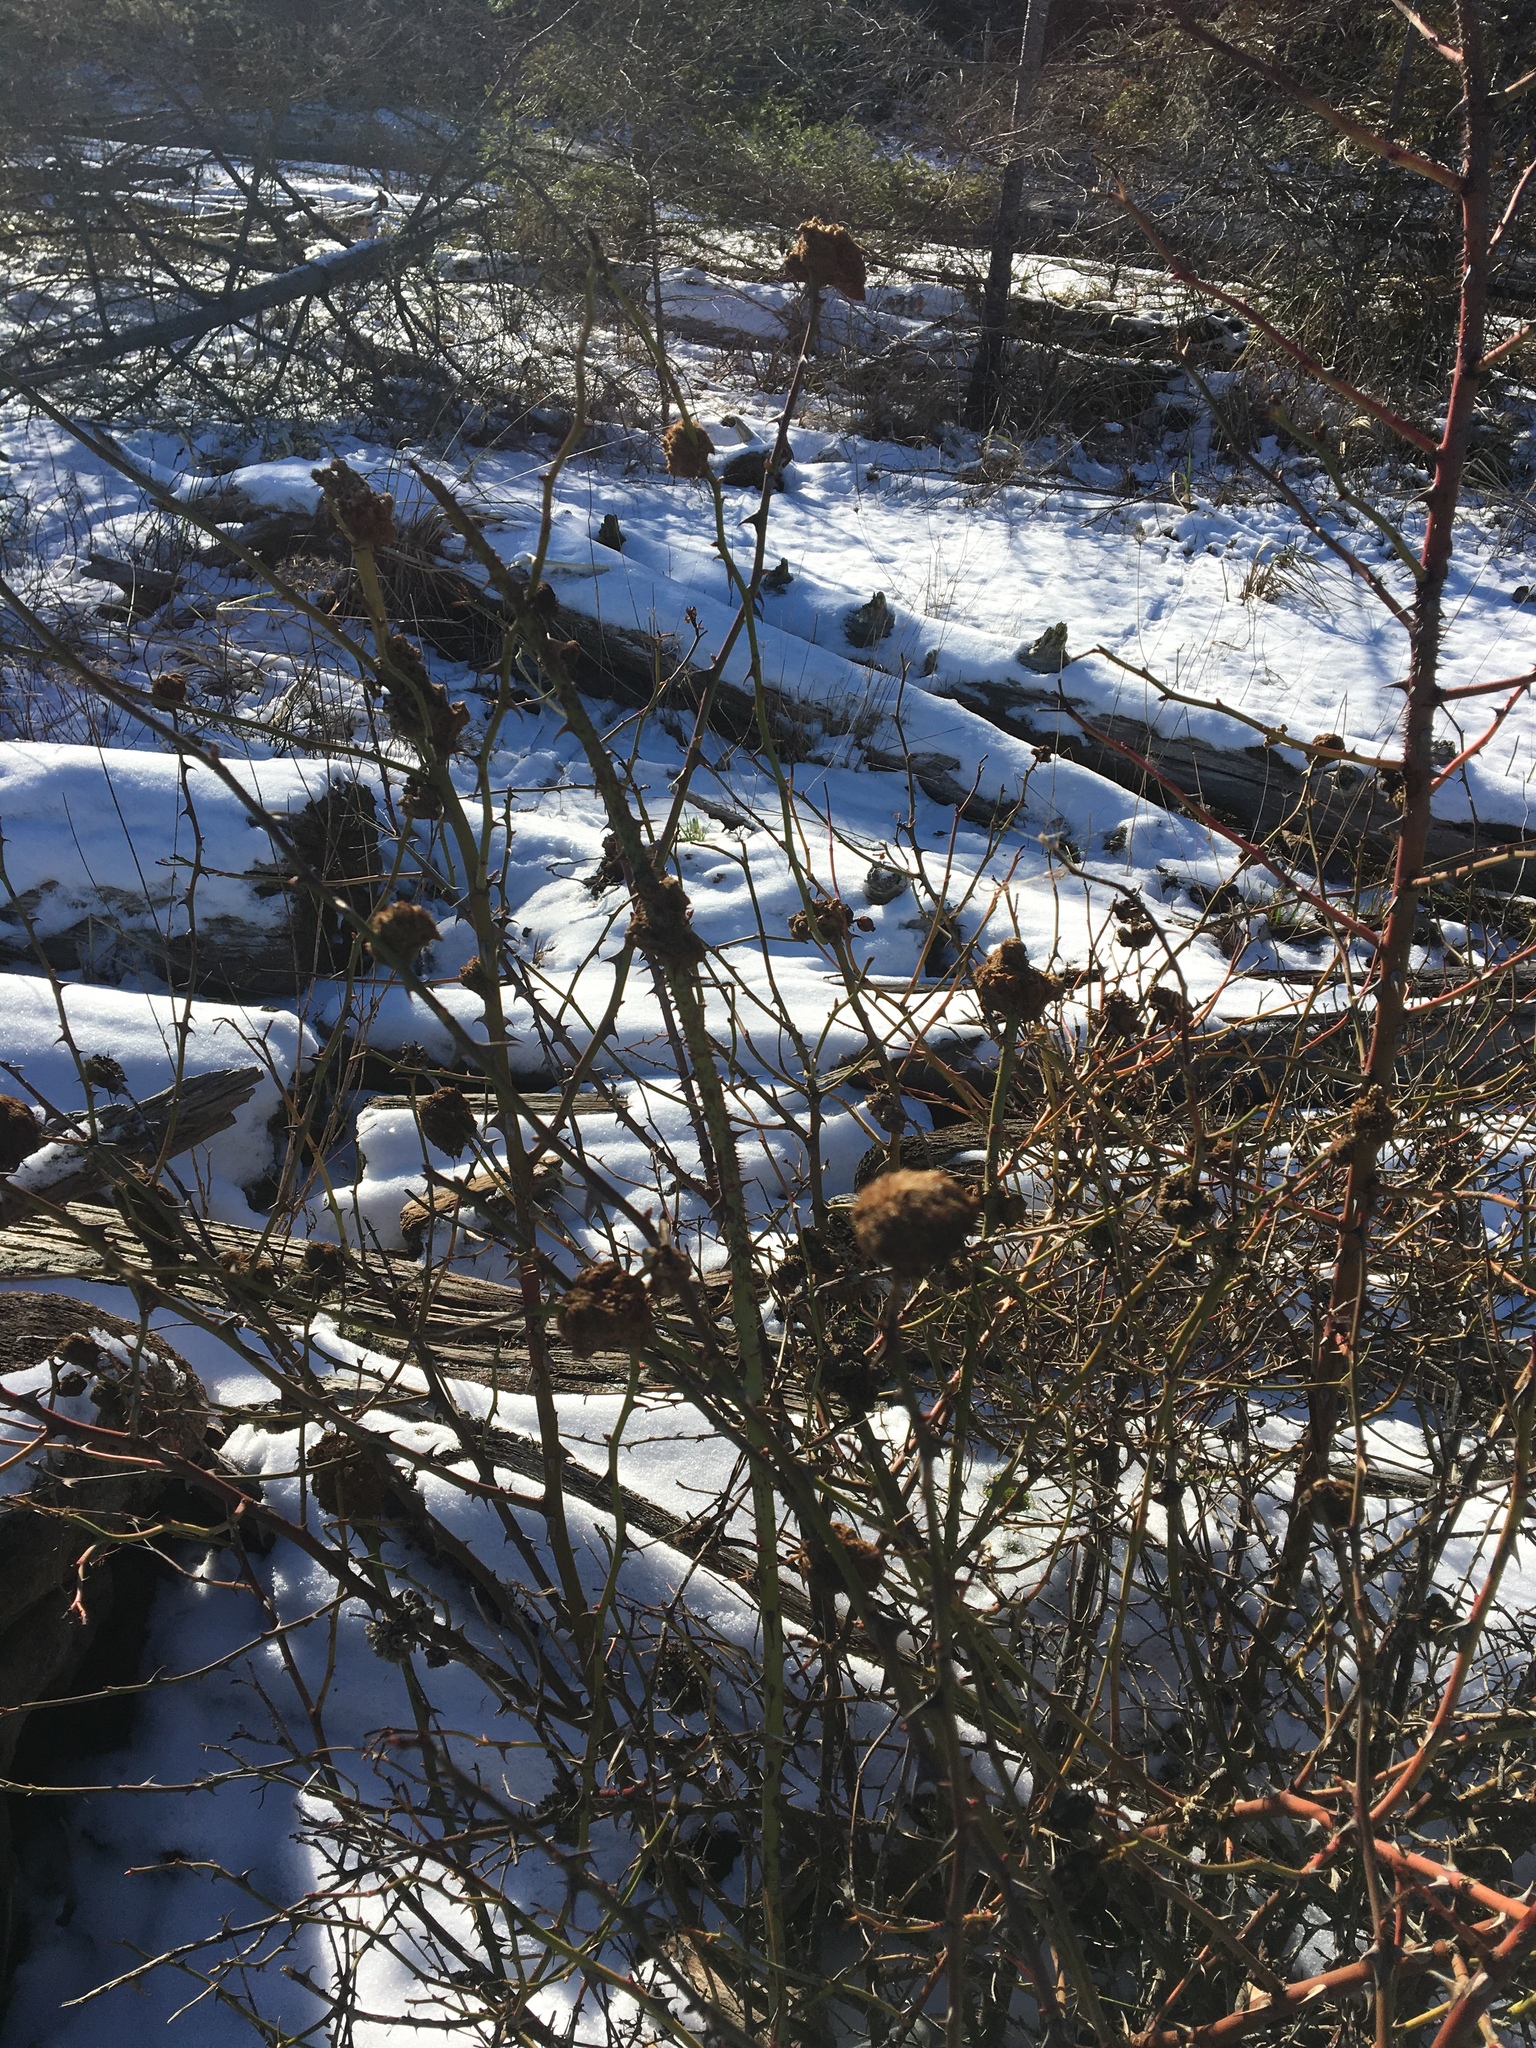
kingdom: Plantae
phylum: Tracheophyta
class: Magnoliopsida
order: Rosales
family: Rosaceae
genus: Rosa
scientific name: Rosa canina
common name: Dog rose
